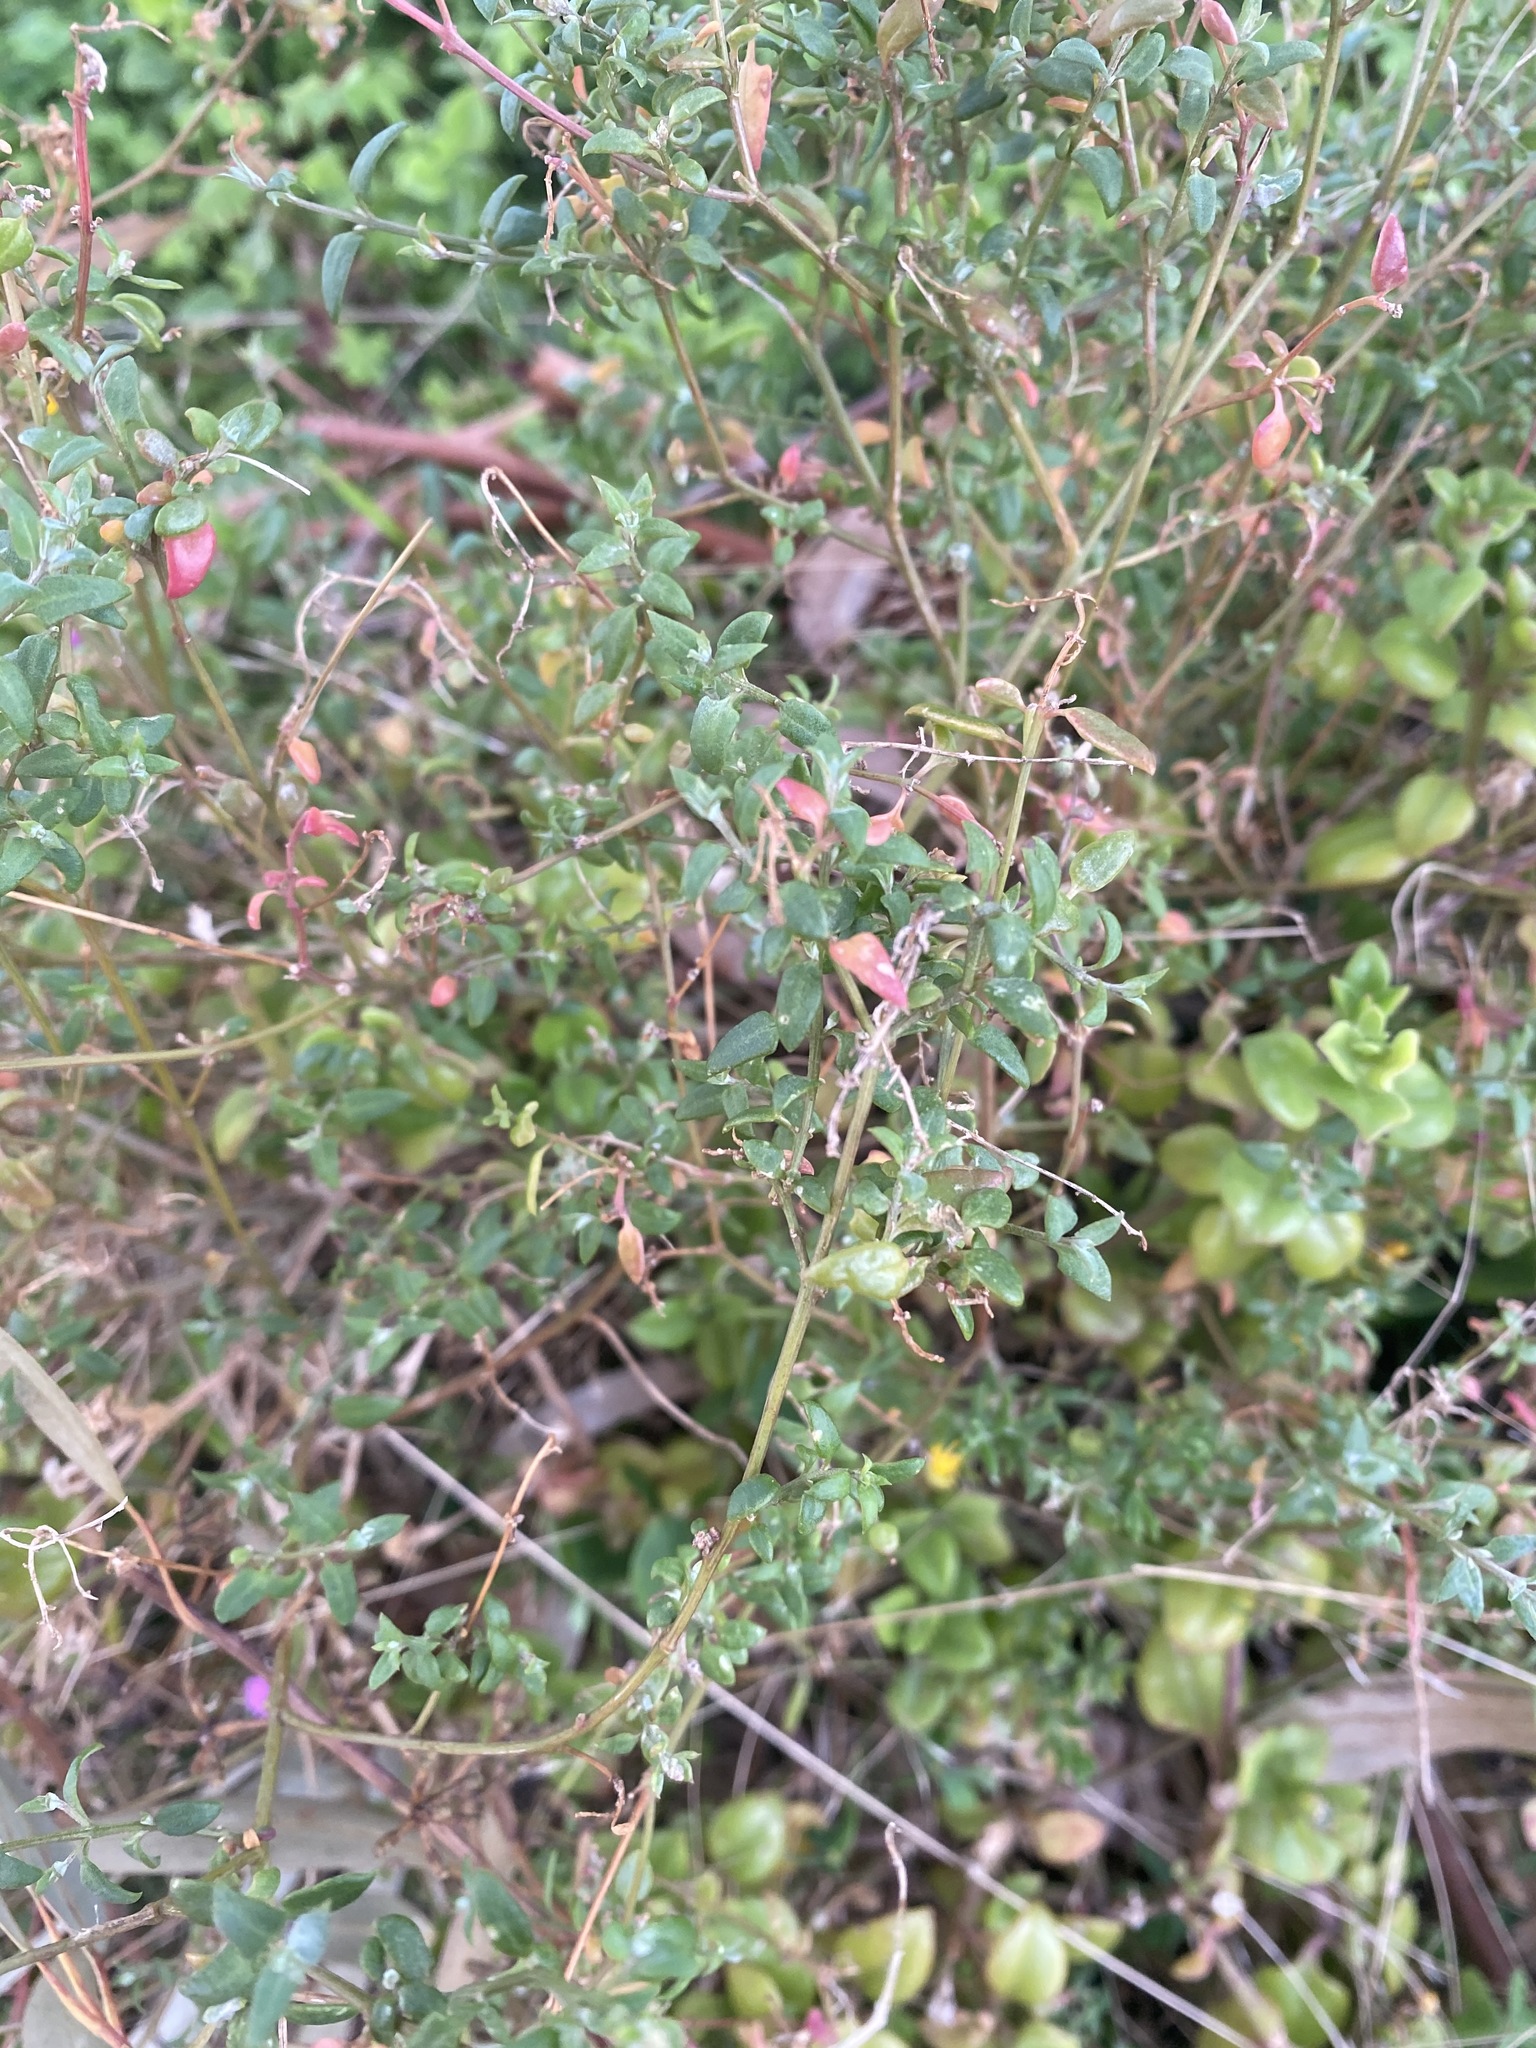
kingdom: Plantae
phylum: Tracheophyta
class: Magnoliopsida
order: Caryophyllales
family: Amaranthaceae
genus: Chenopodium
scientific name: Chenopodium nutans
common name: Climbing-saltbush
